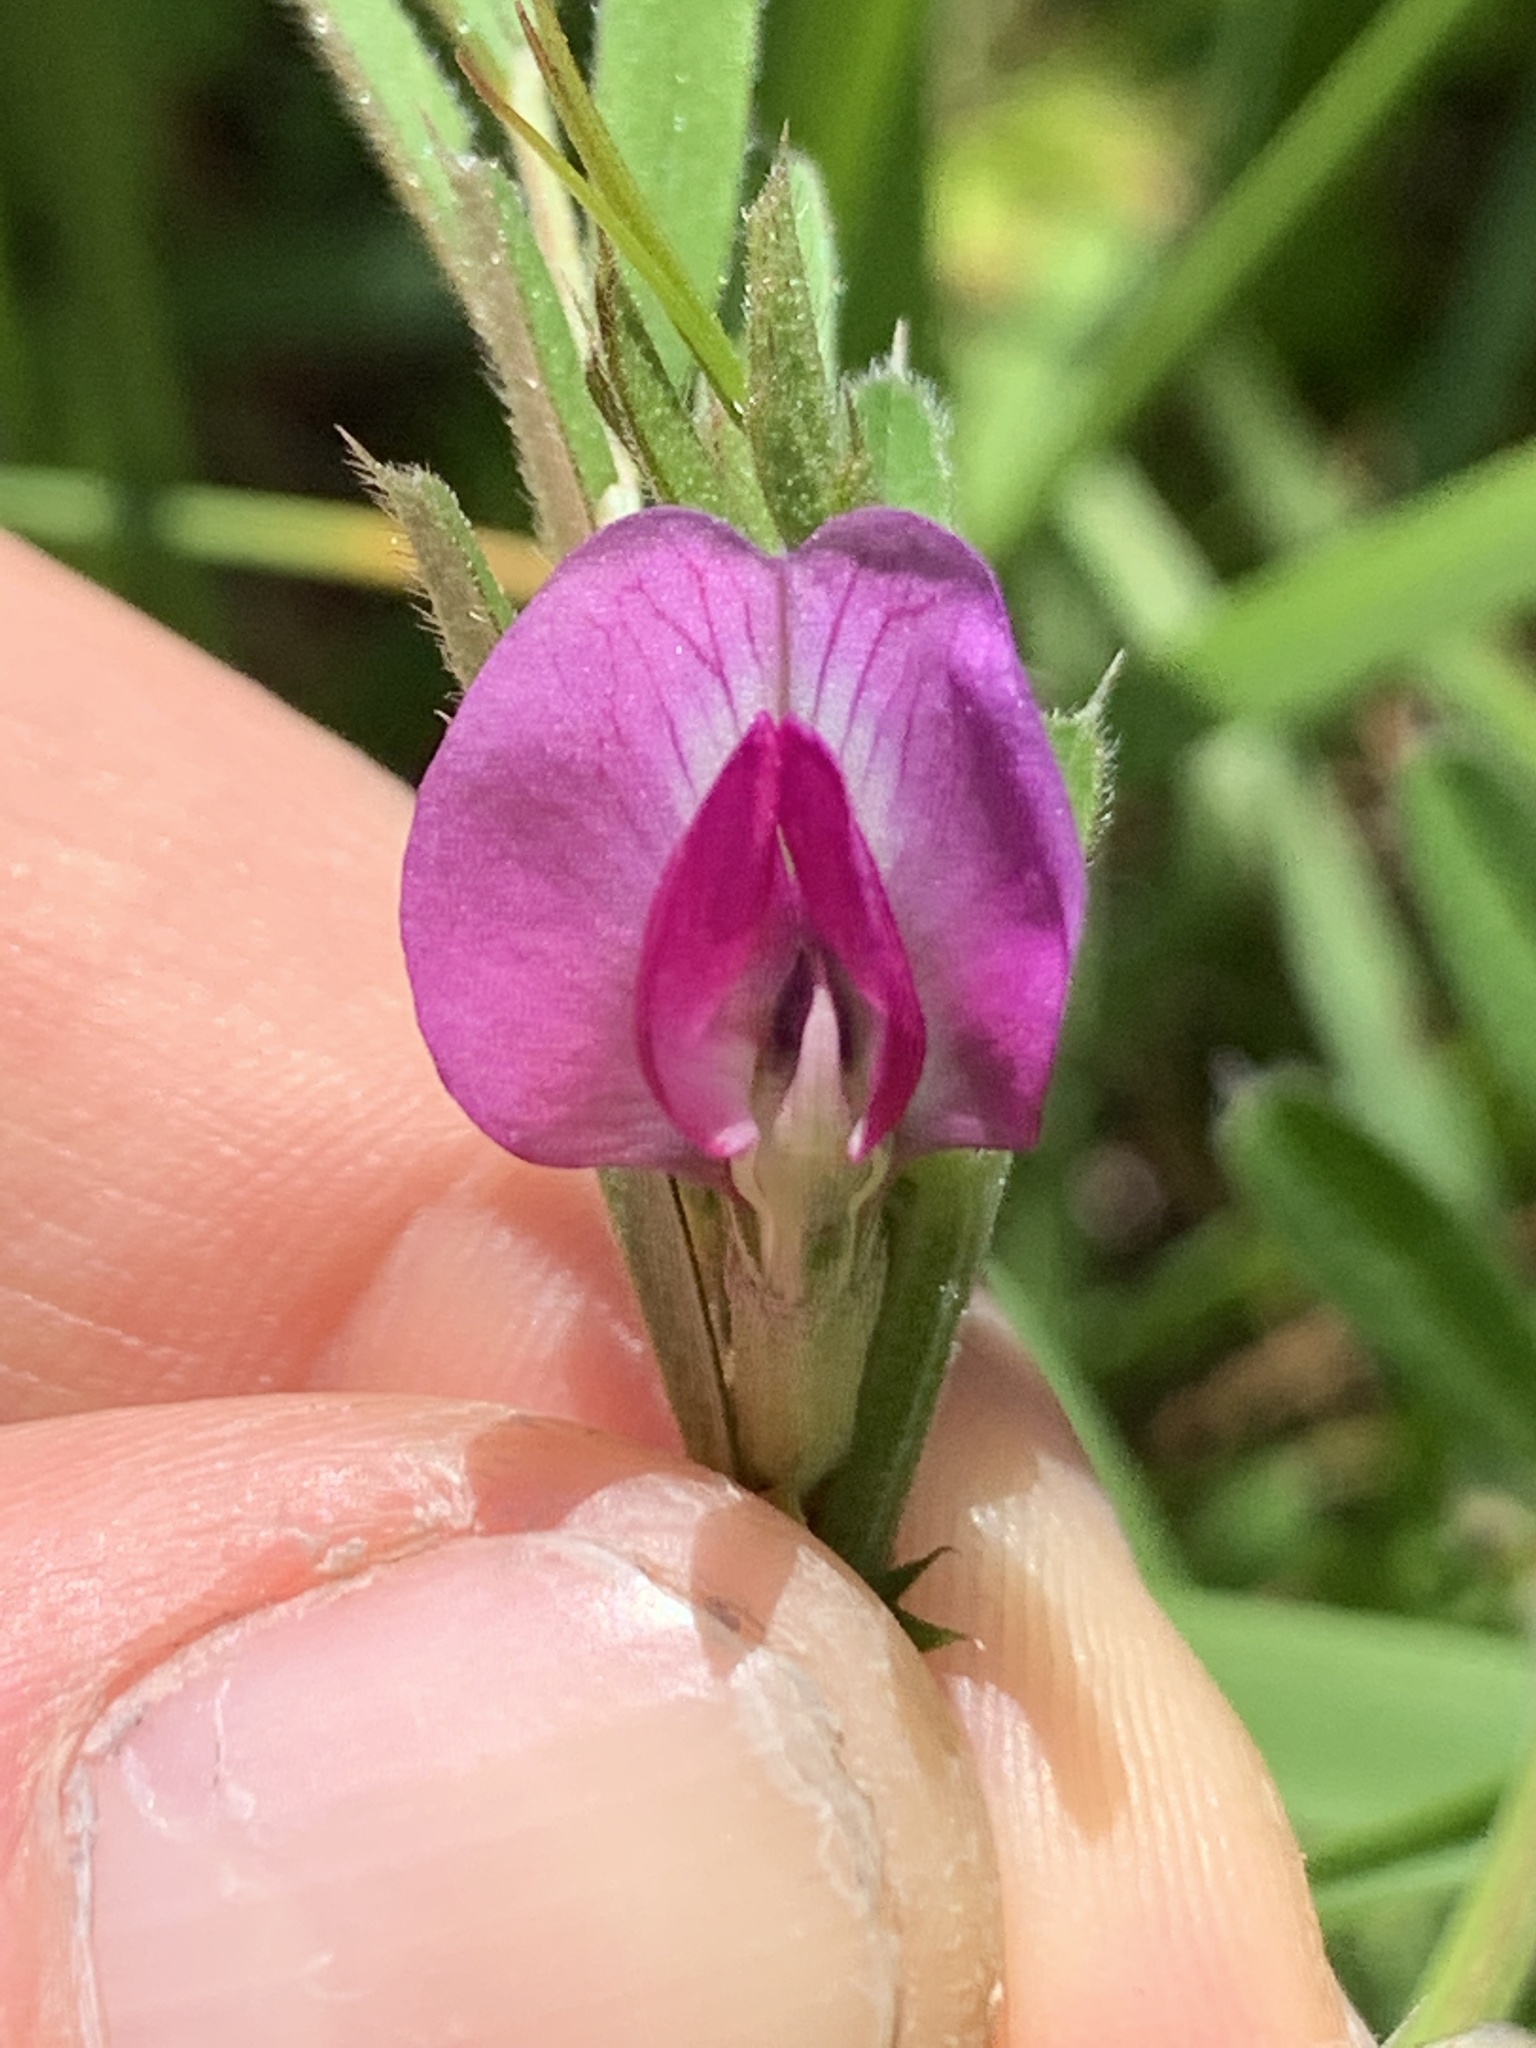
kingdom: Plantae
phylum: Tracheophyta
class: Magnoliopsida
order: Fabales
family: Fabaceae
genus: Vicia
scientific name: Vicia sativa
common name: Garden vetch
